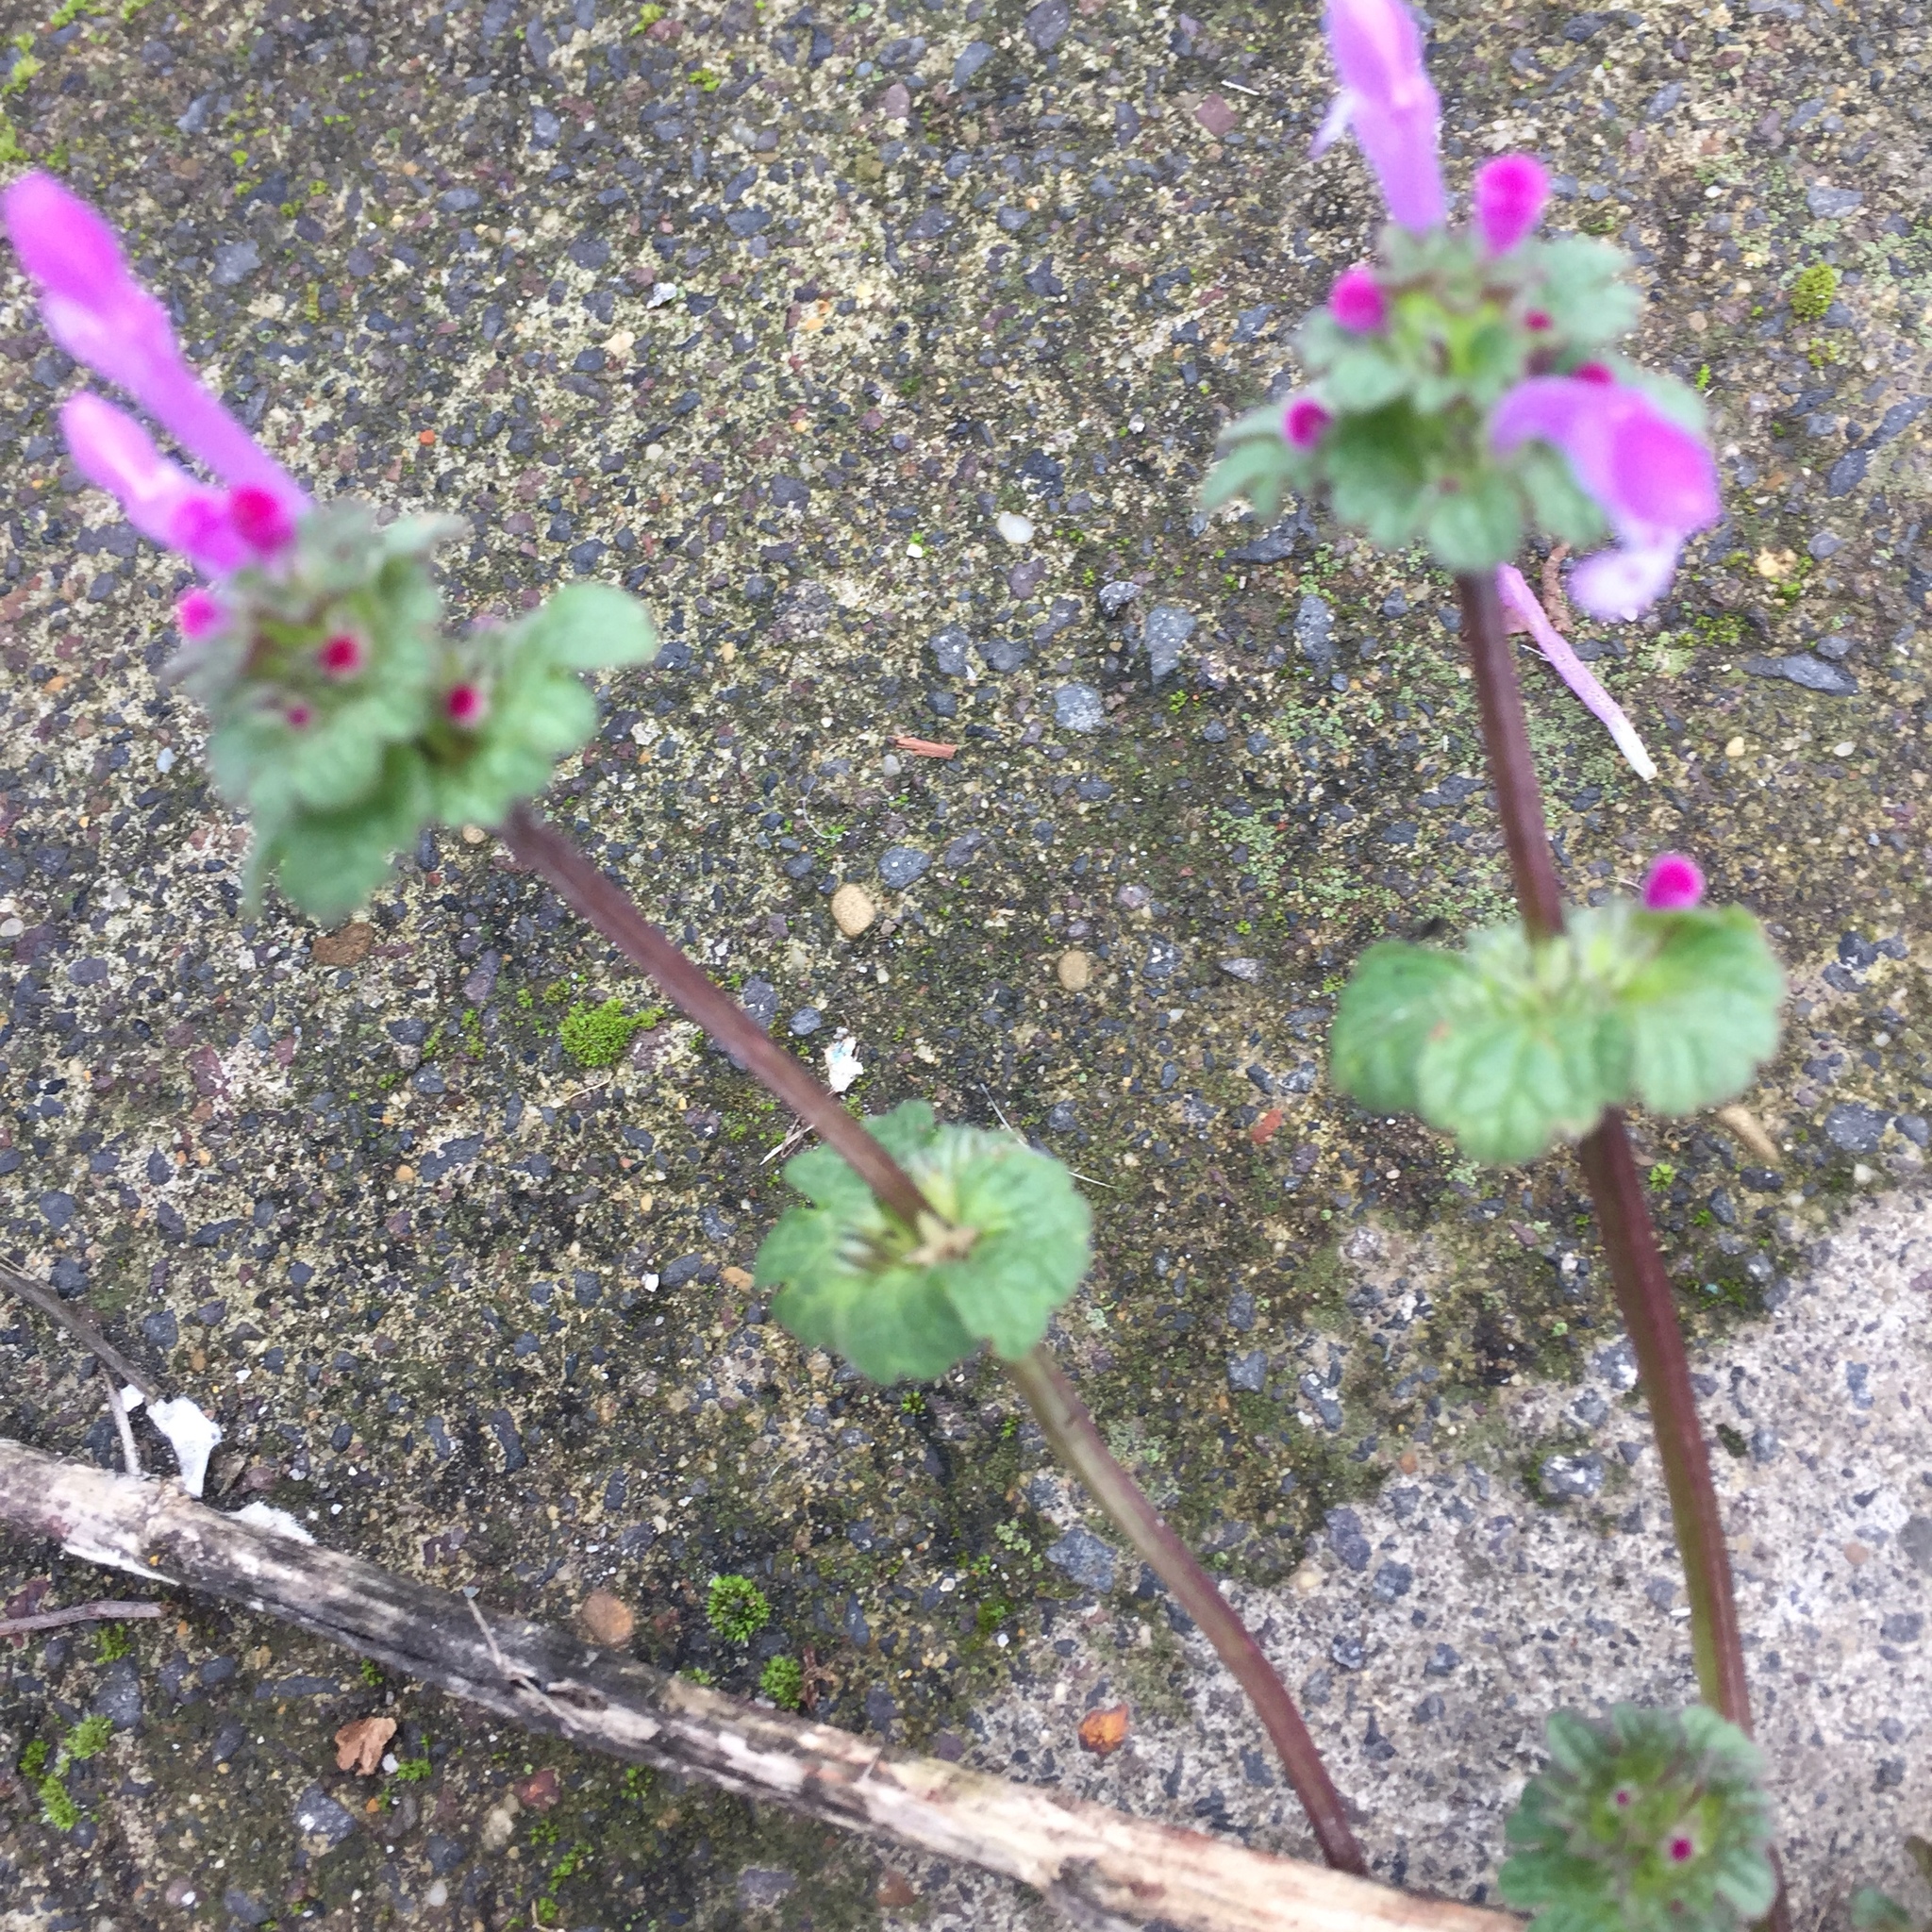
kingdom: Plantae
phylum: Tracheophyta
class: Magnoliopsida
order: Lamiales
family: Lamiaceae
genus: Lamium
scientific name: Lamium amplexicaule
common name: Henbit dead-nettle
